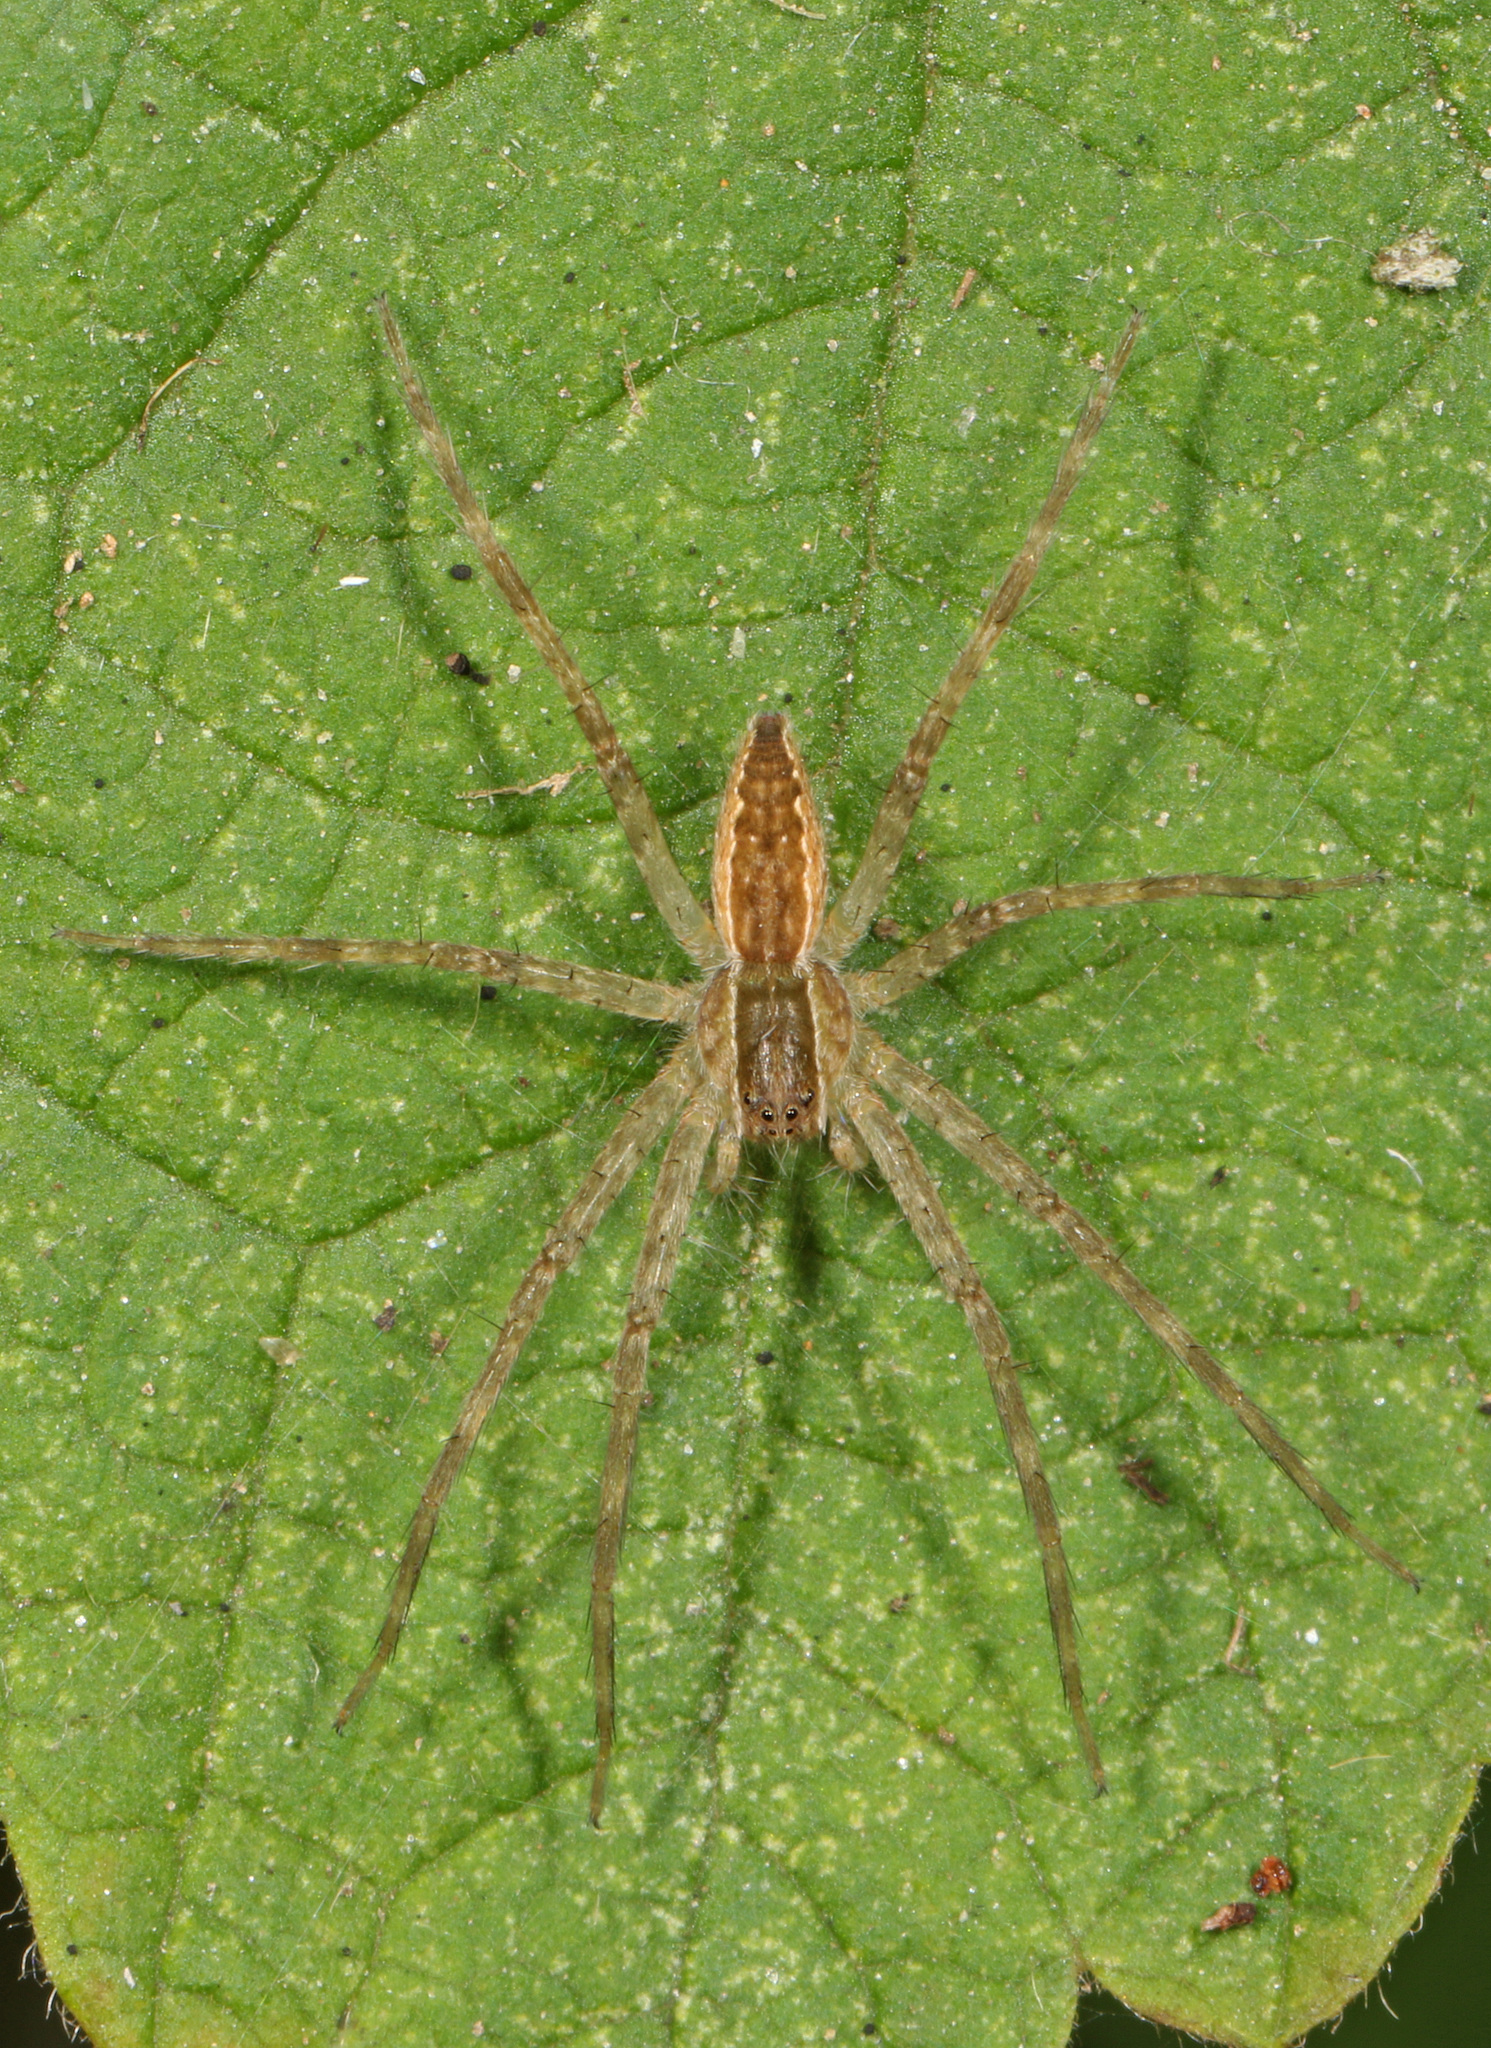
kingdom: Animalia
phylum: Arthropoda
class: Arachnida
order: Araneae
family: Pisauridae
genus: Pisaurina
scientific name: Pisaurina mira
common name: American nursery web spider
